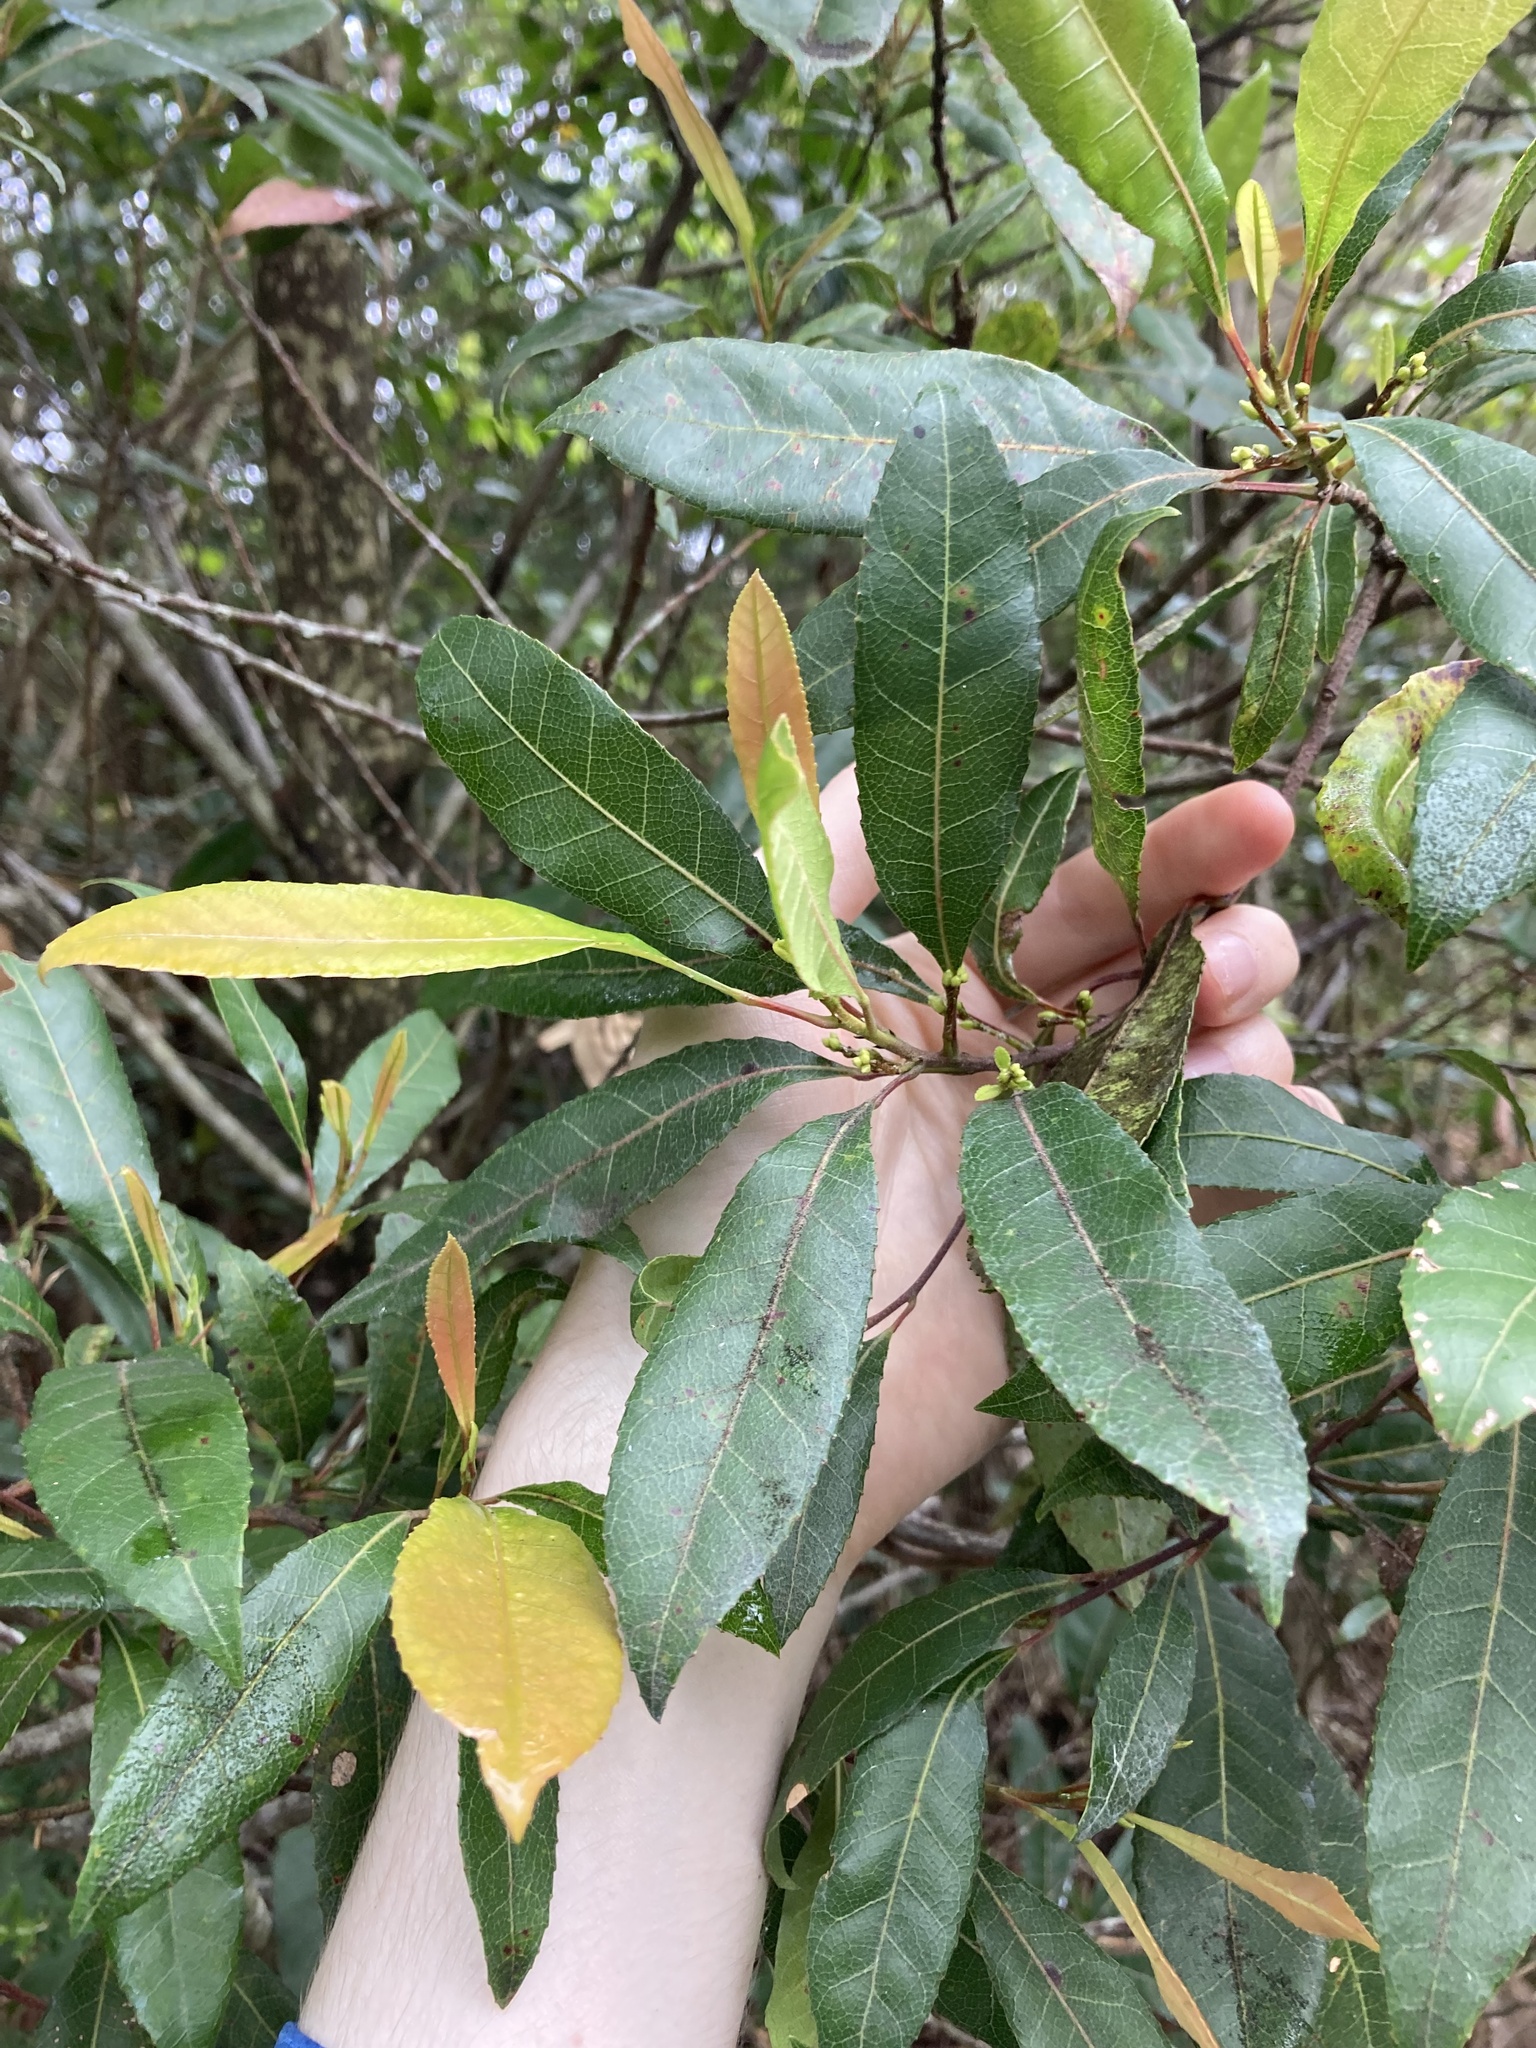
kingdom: Plantae
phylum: Tracheophyta
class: Magnoliopsida
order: Oxalidales
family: Elaeocarpaceae
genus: Elaeocarpus
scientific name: Elaeocarpus reticulatus
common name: Ash quandong
